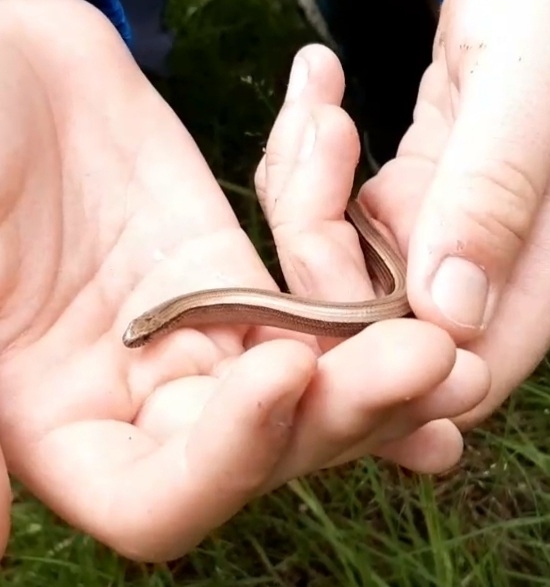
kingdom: Animalia
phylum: Chordata
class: Squamata
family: Anguidae
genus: Anguis
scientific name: Anguis fragilis
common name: Slow worm
